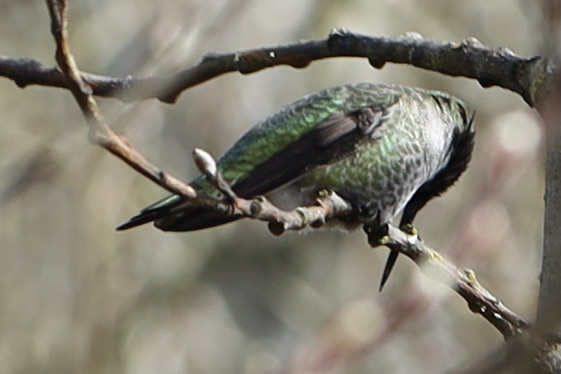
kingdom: Animalia
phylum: Chordata
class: Aves
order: Apodiformes
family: Trochilidae
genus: Calypte
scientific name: Calypte anna
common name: Anna's hummingbird
